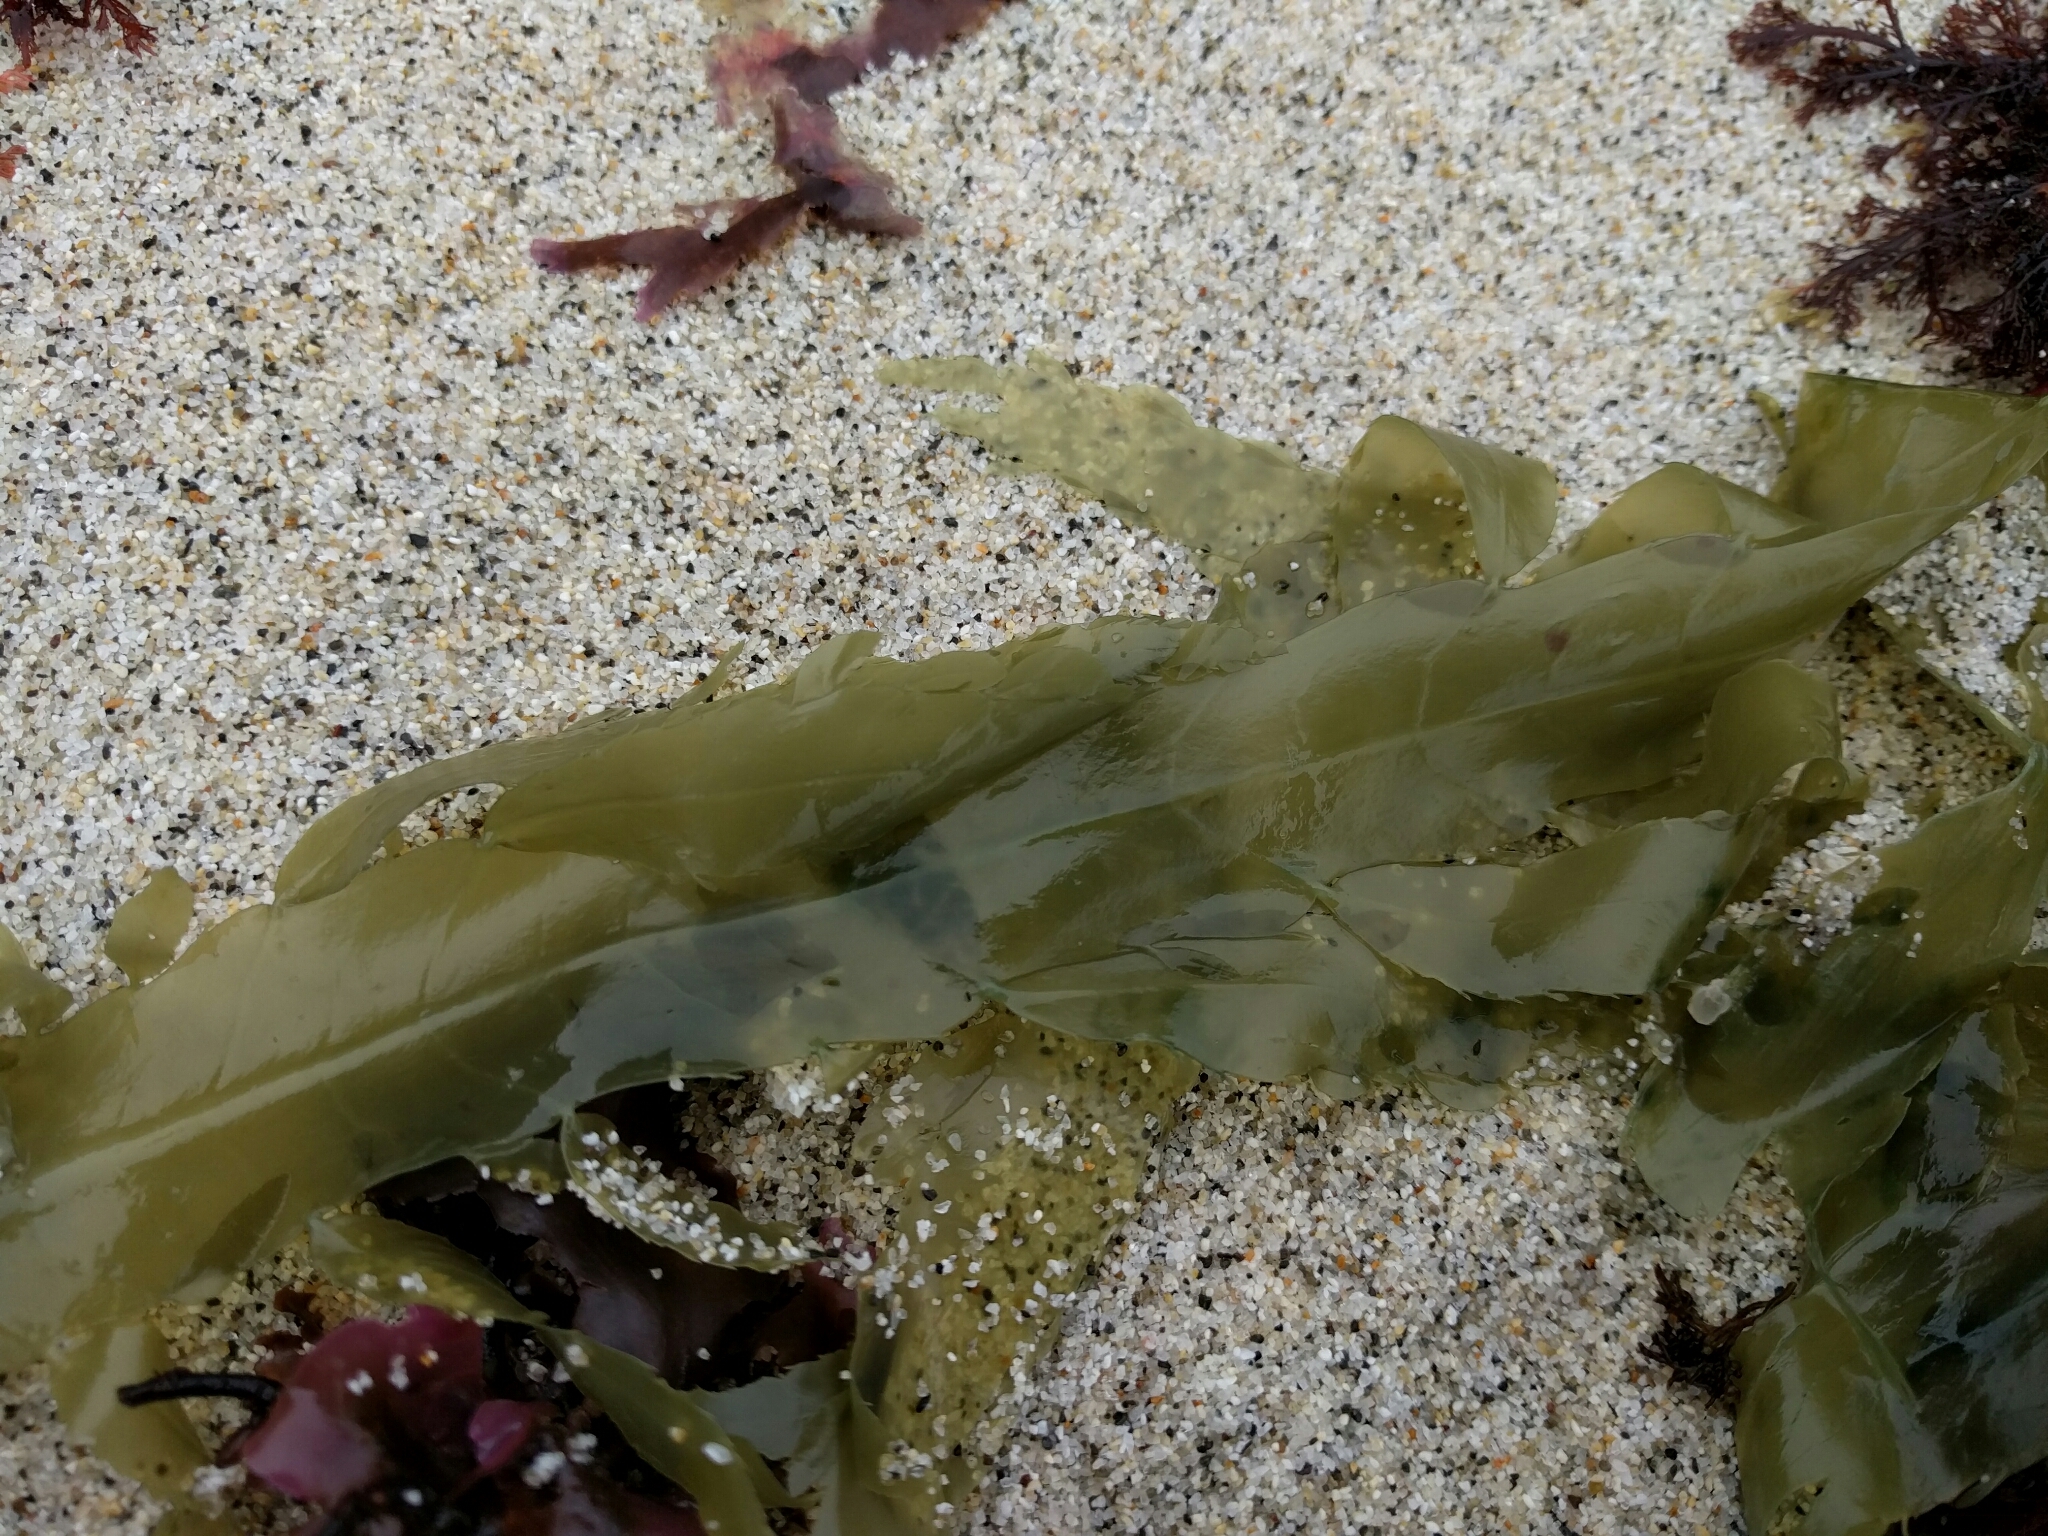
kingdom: Chromista
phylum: Ochrophyta
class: Phaeophyceae
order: Desmarestiales
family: Desmarestiaceae
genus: Desmarestia
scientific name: Desmarestia ligulata
